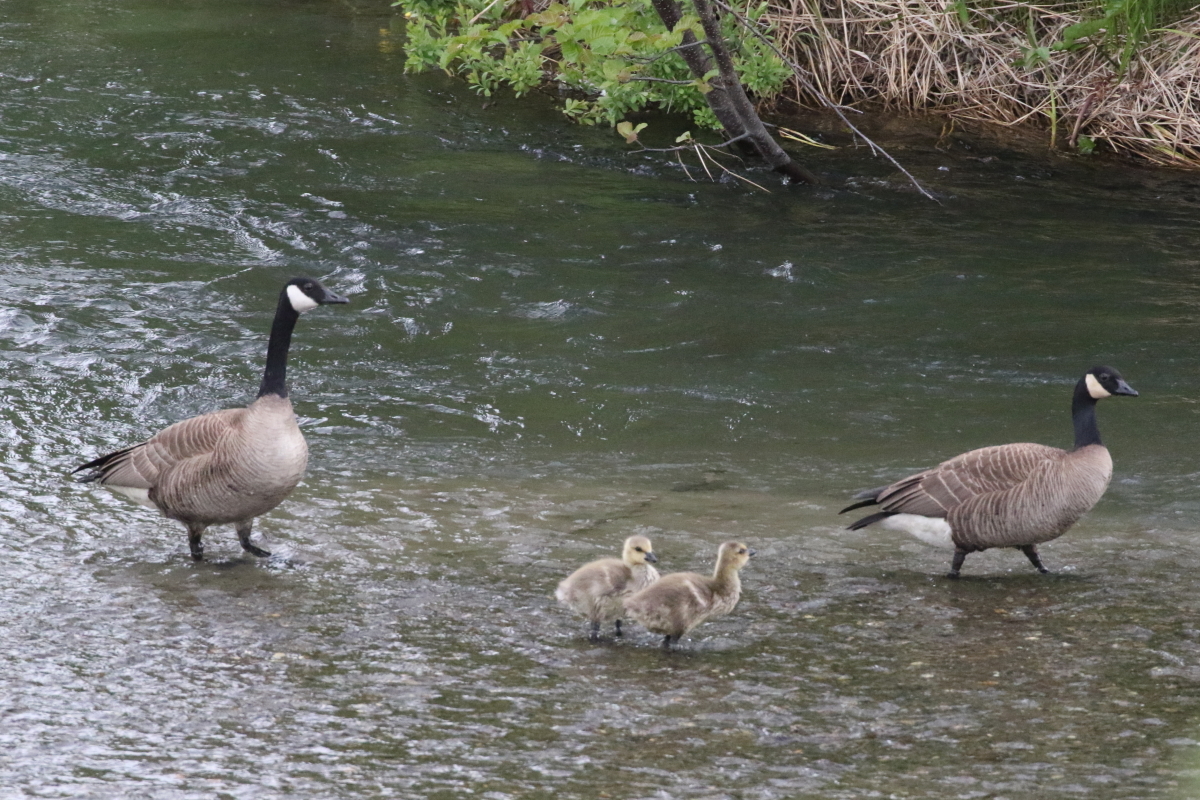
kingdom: Animalia
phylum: Chordata
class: Aves
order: Anseriformes
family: Anatidae
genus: Branta
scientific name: Branta canadensis
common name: Canada goose
